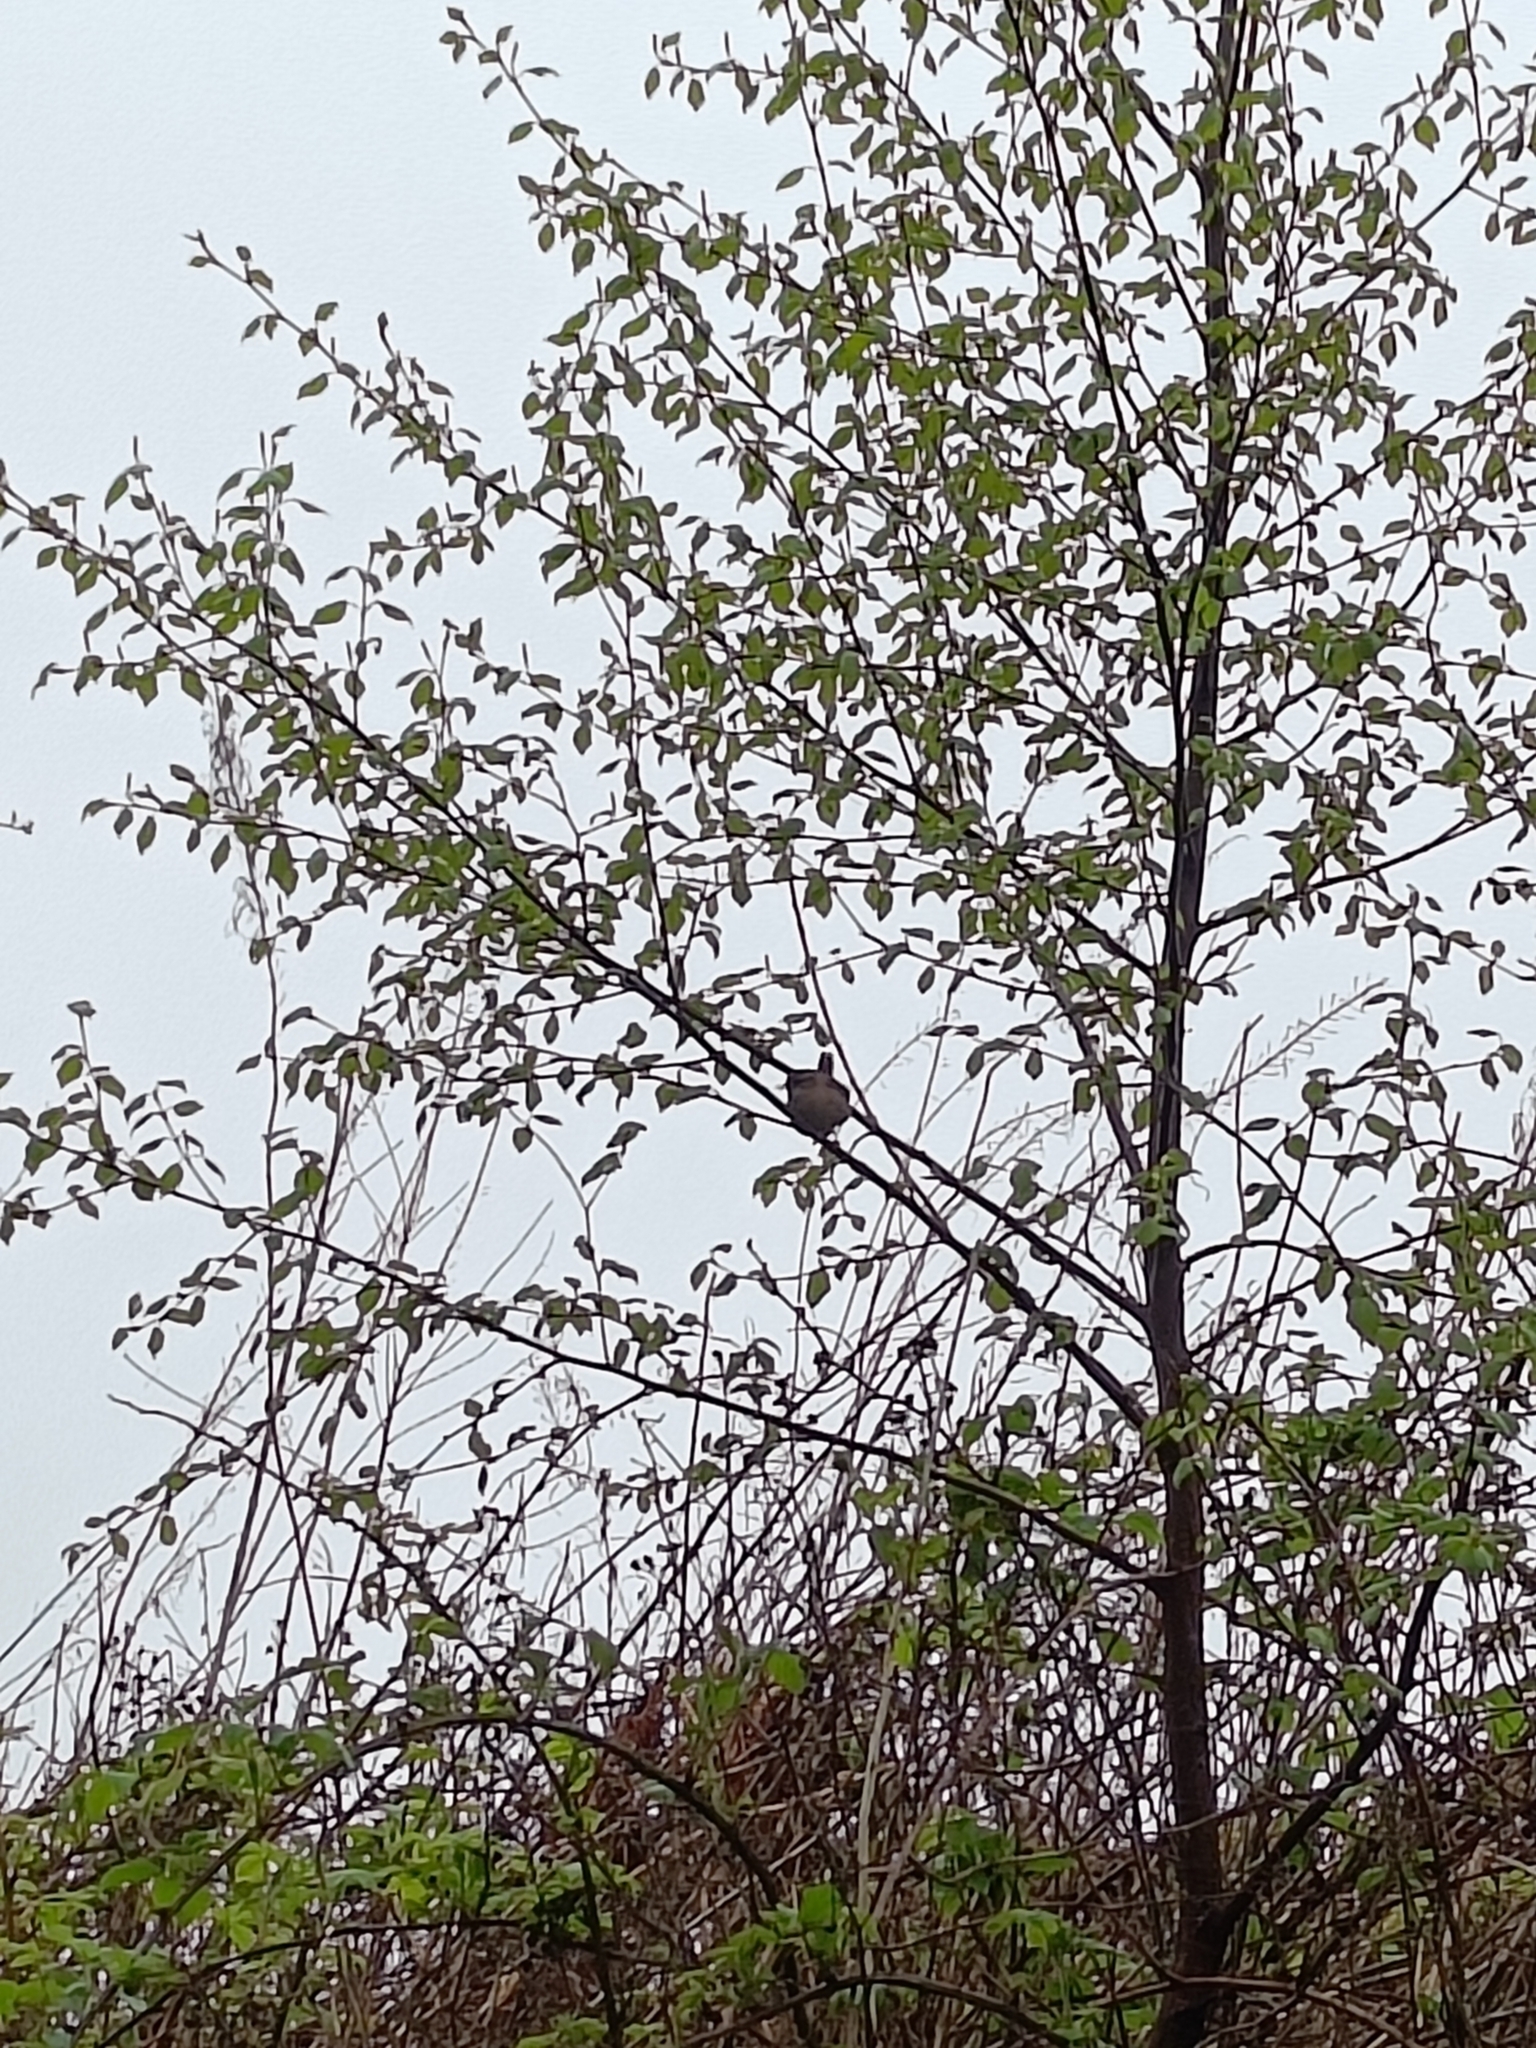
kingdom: Animalia
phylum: Chordata
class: Aves
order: Passeriformes
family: Troglodytidae
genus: Troglodytes
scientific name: Troglodytes troglodytes
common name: Eurasian wren
